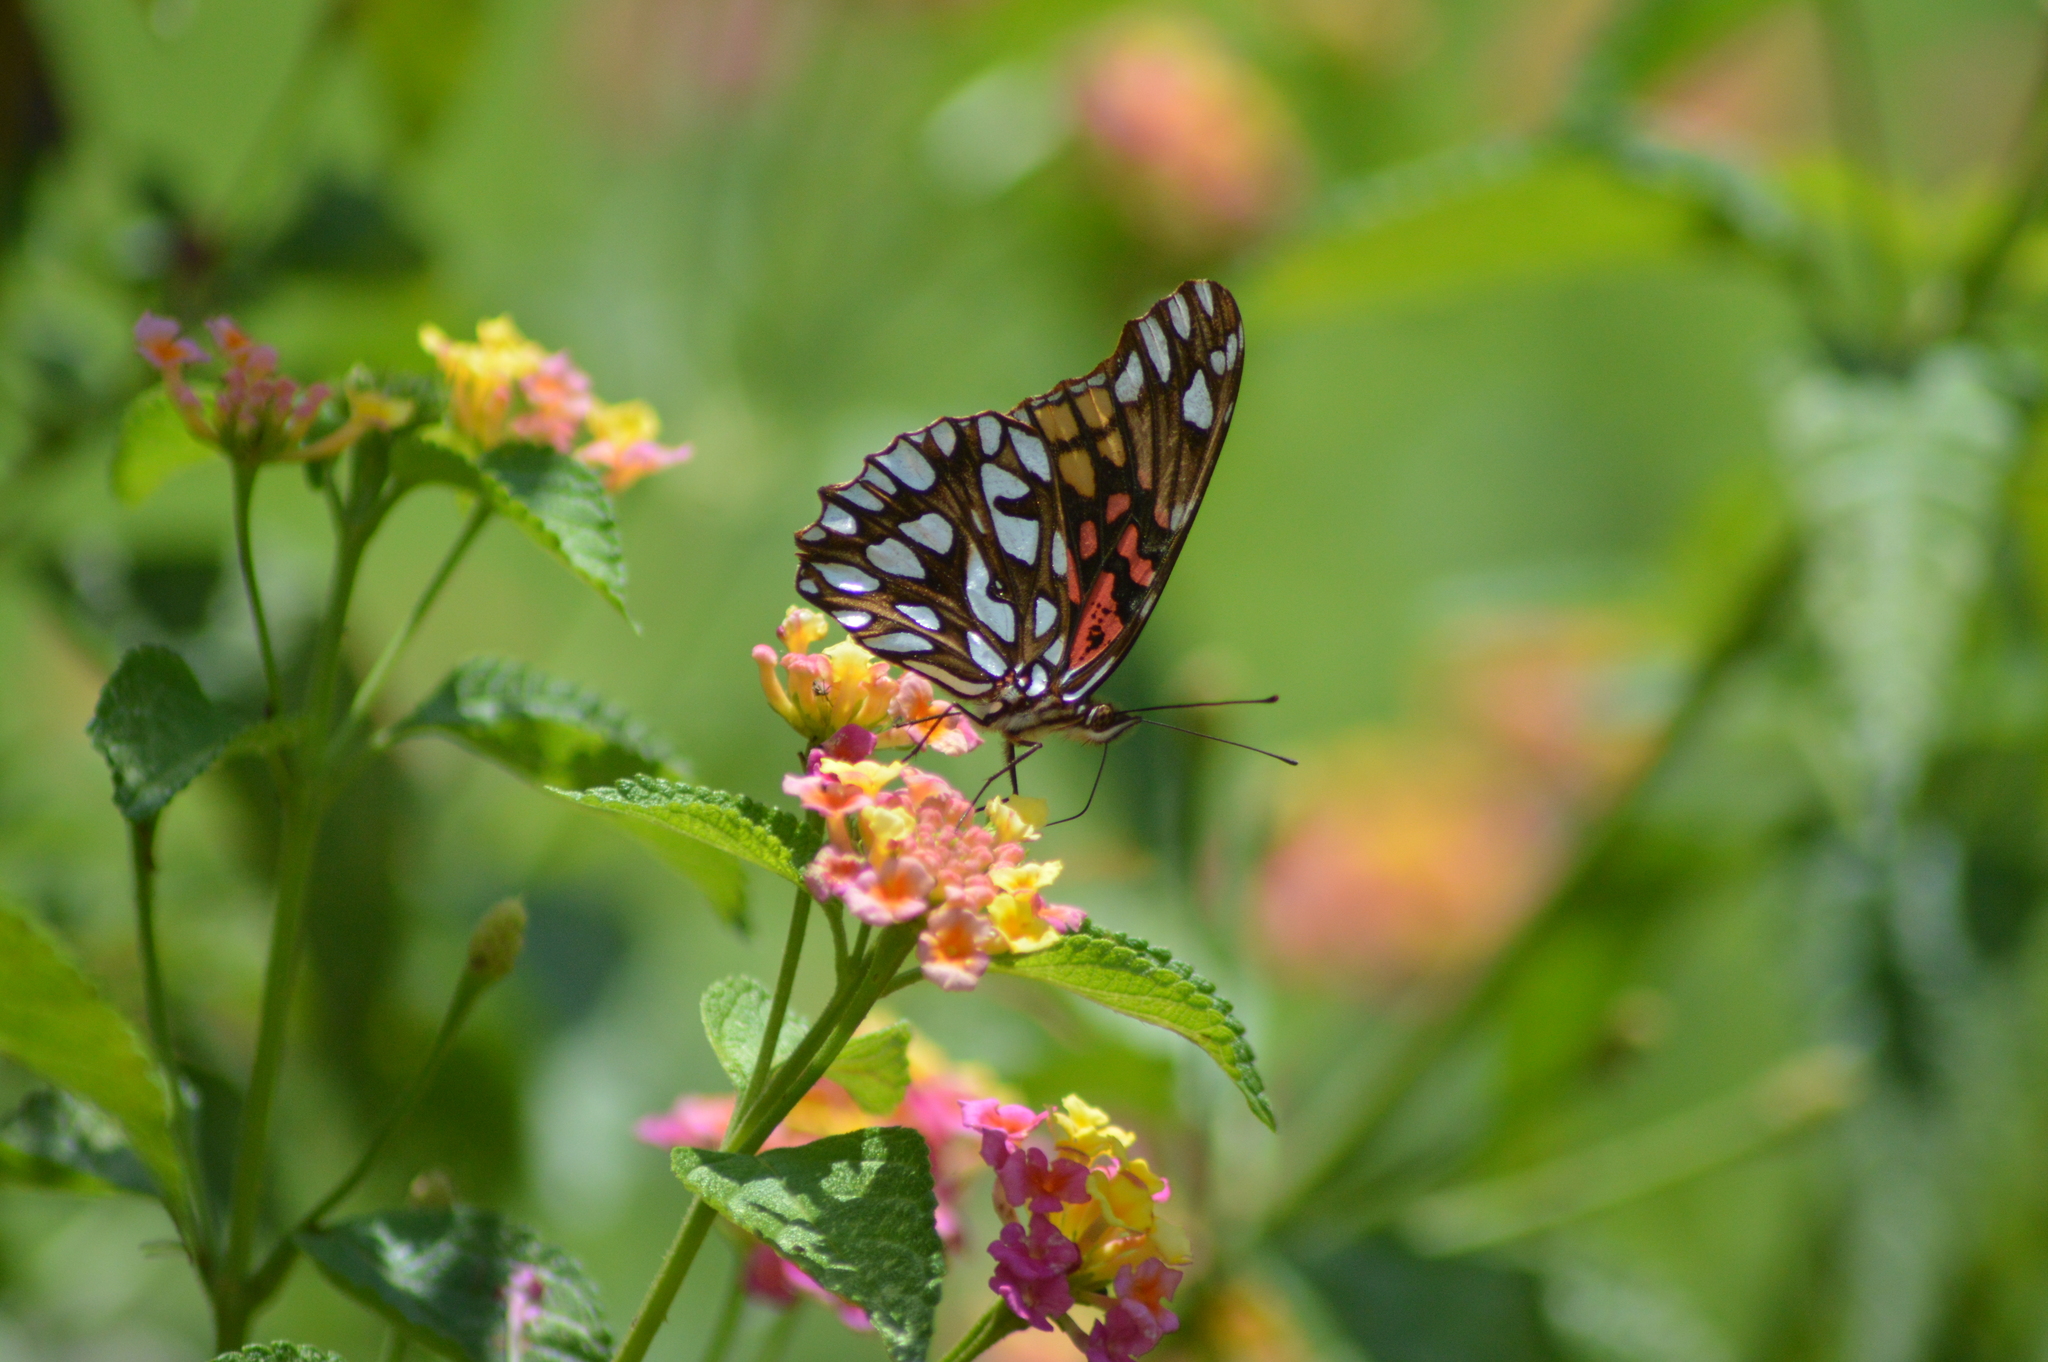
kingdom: Animalia
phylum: Arthropoda
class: Insecta
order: Lepidoptera
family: Nymphalidae
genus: Dione
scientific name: Dione moneta
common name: Mexican silverspot
